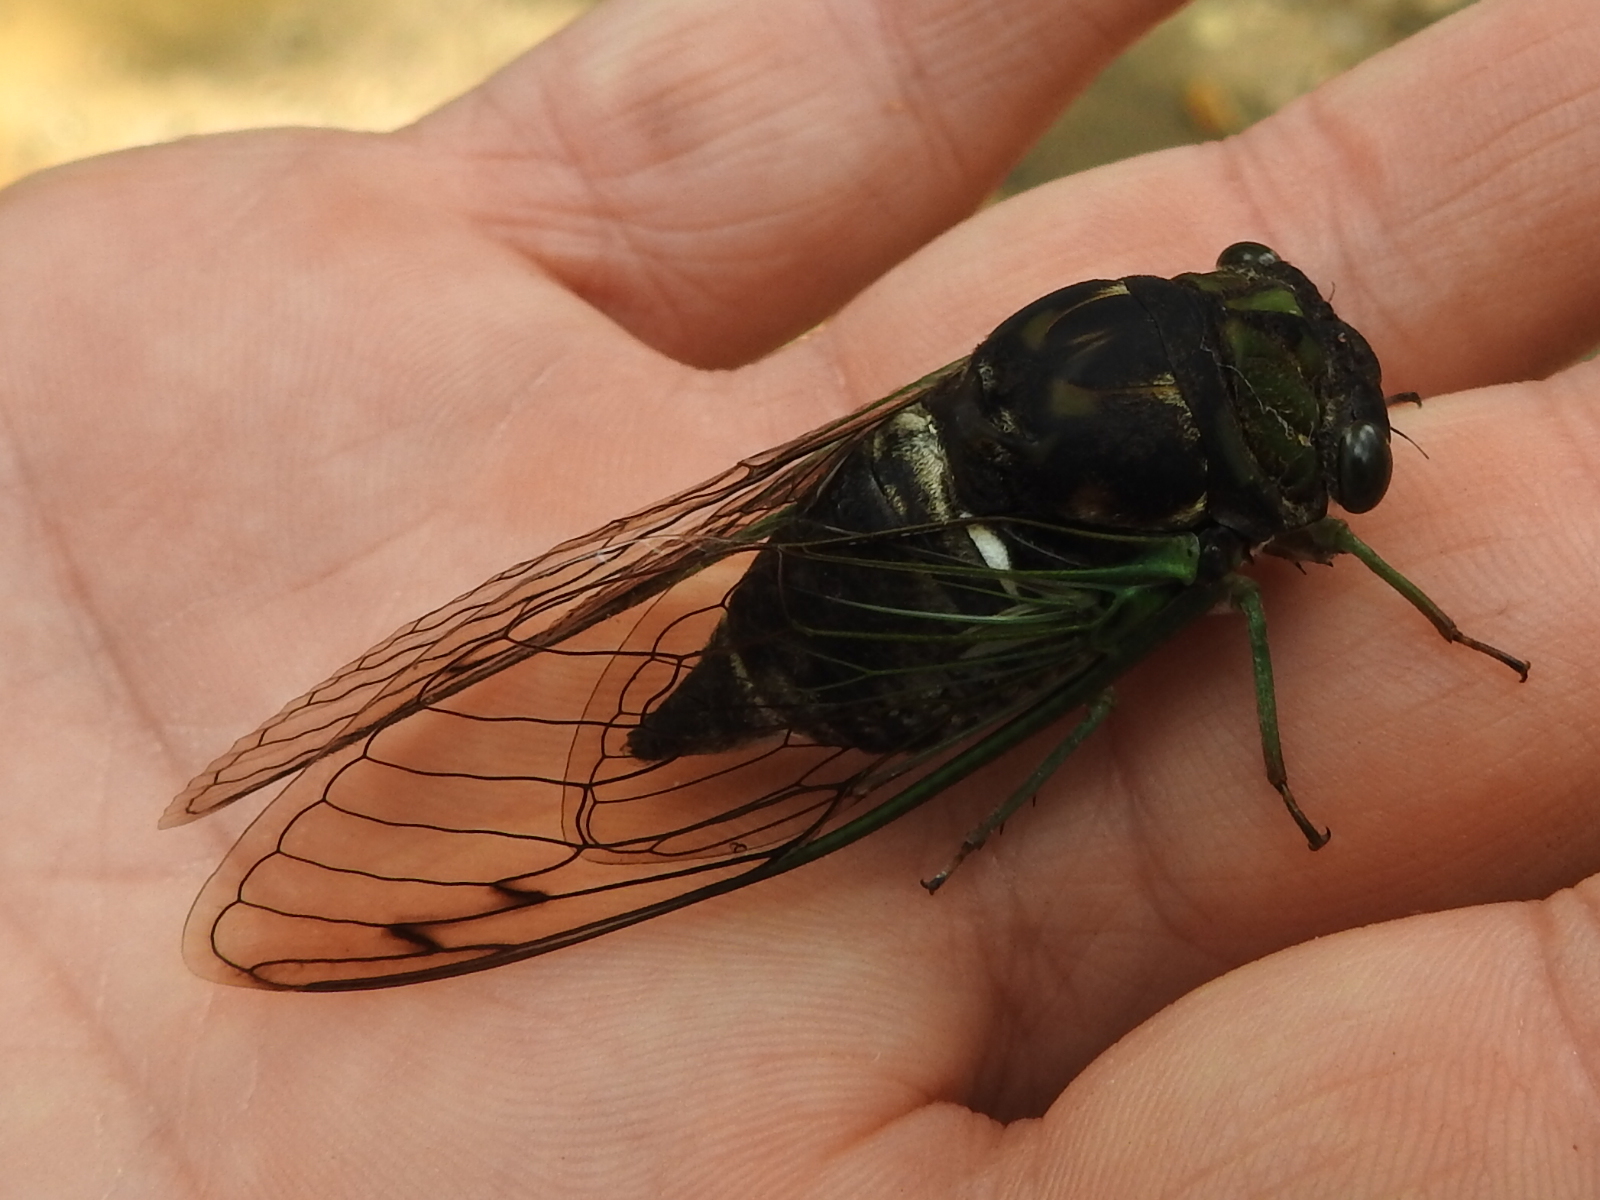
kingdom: Animalia
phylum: Arthropoda
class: Insecta
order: Hemiptera
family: Cicadidae
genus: Neotibicen
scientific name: Neotibicen tibicen
